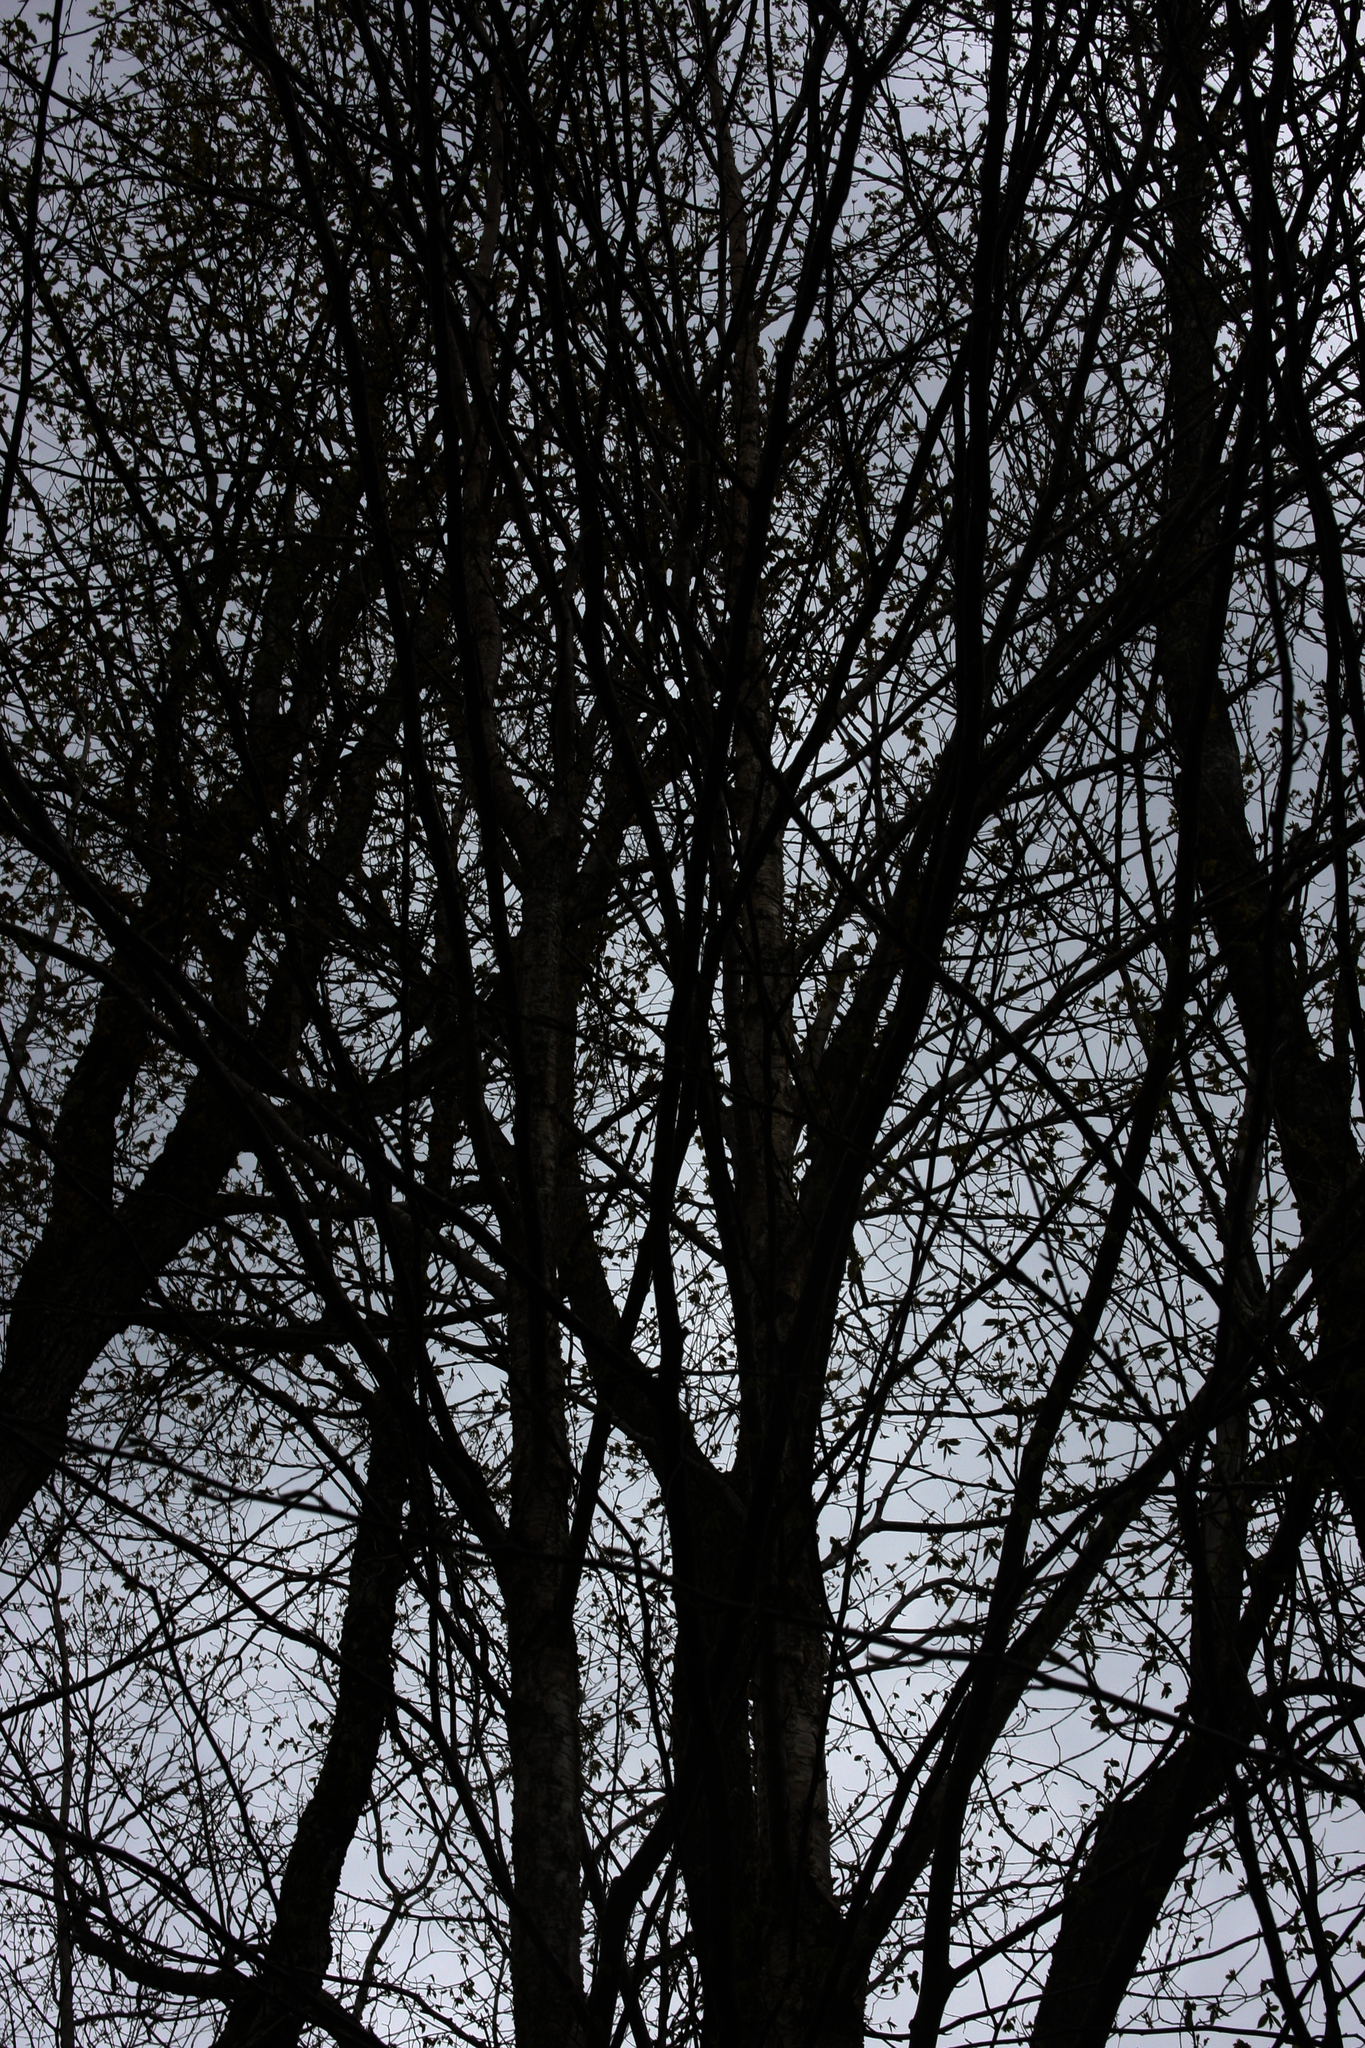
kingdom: Plantae
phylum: Tracheophyta
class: Magnoliopsida
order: Fagales
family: Betulaceae
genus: Betula
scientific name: Betula alleghaniensis
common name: Yellow birch
